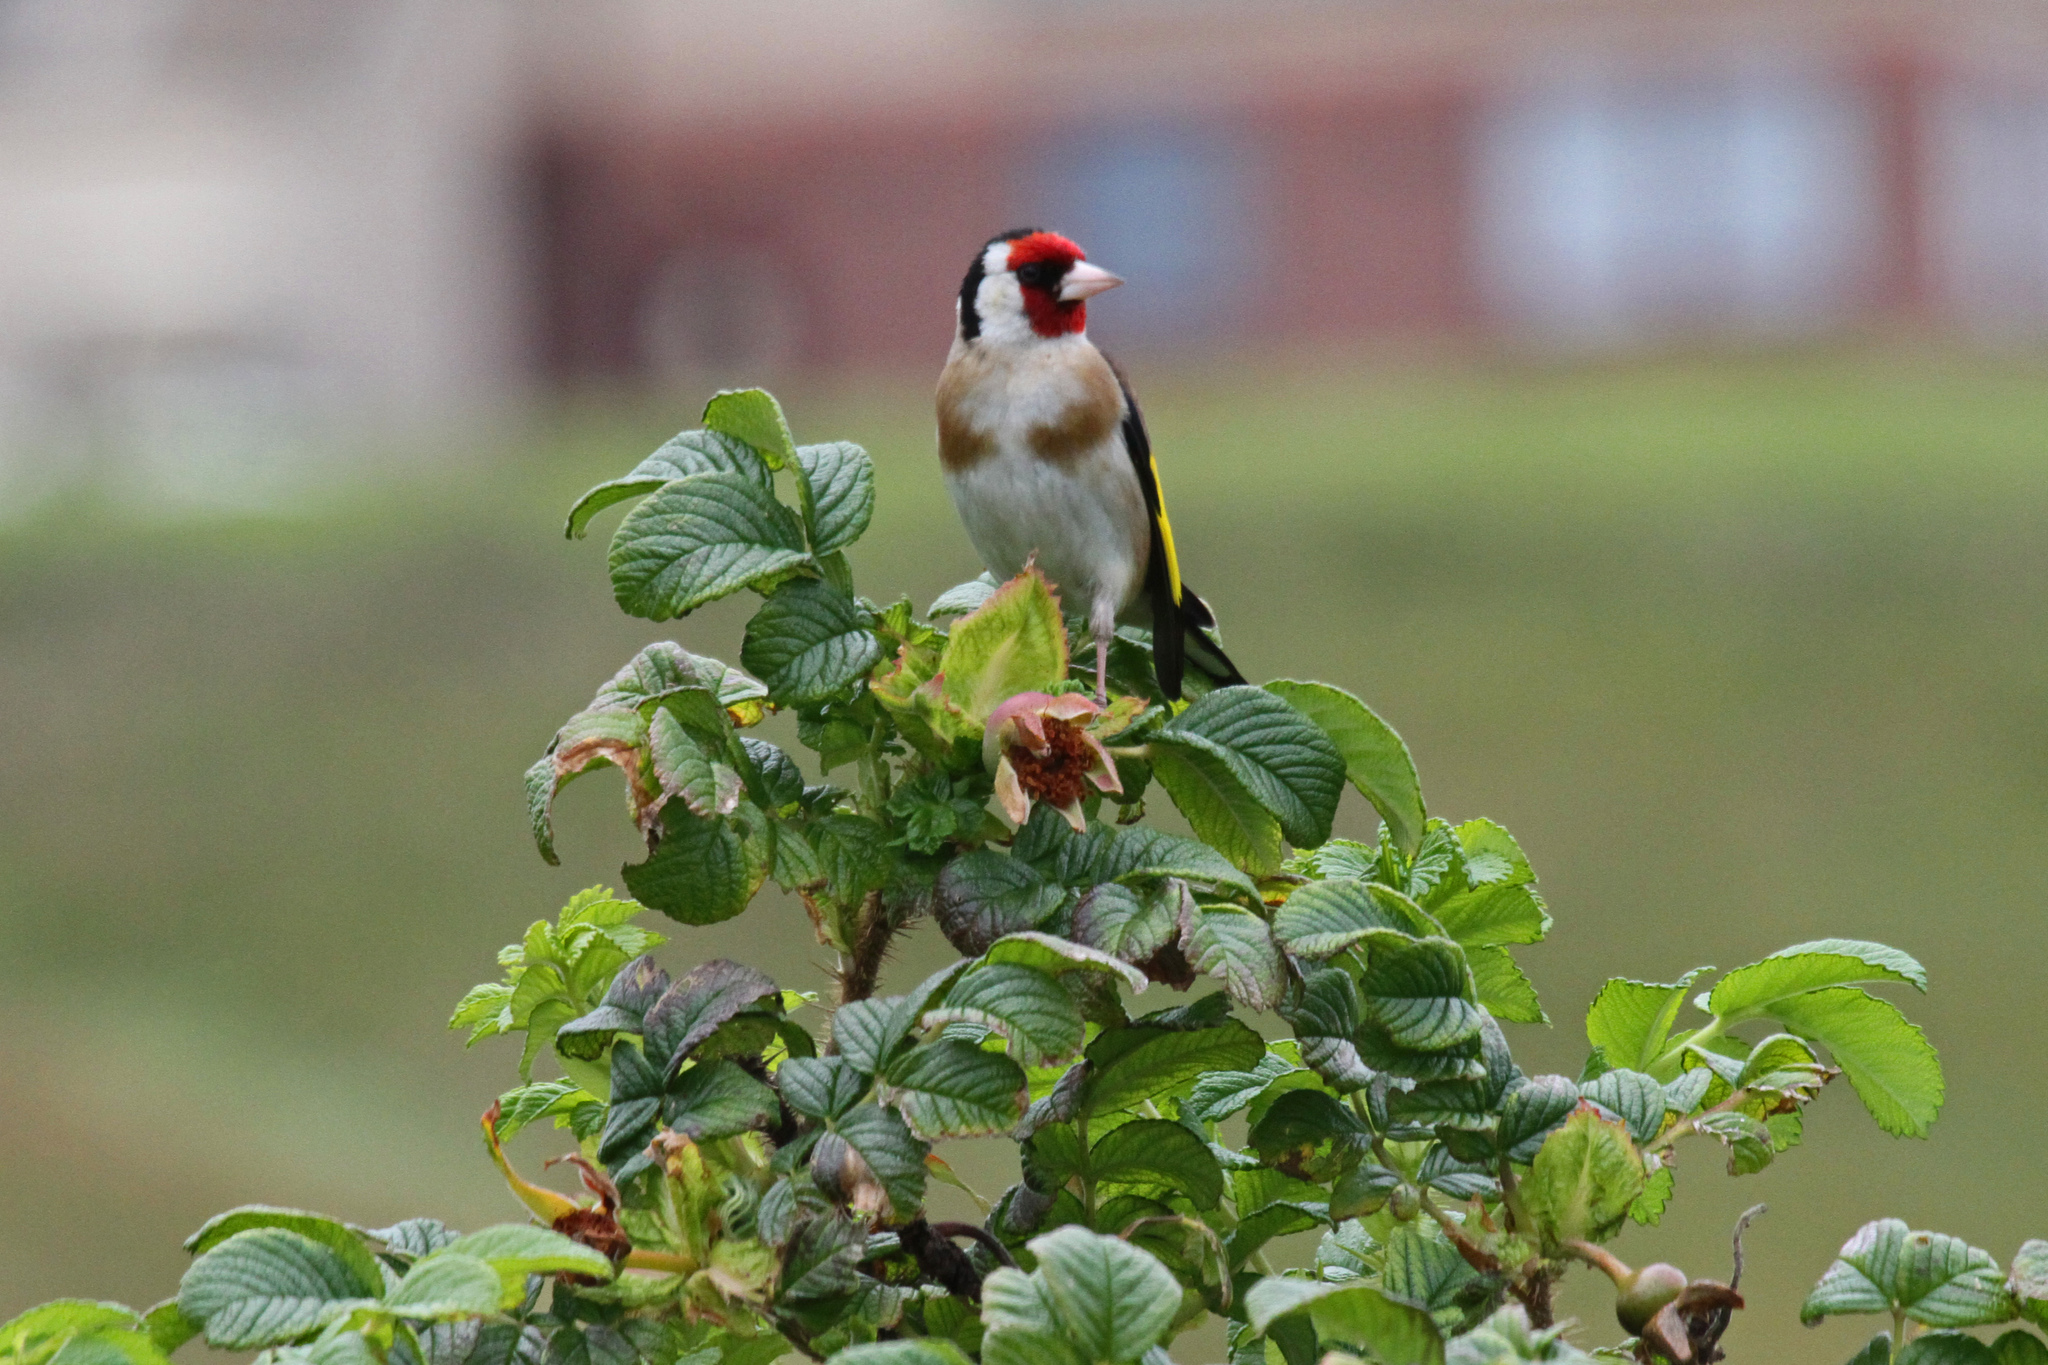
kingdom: Animalia
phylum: Chordata
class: Aves
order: Passeriformes
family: Fringillidae
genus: Carduelis
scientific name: Carduelis carduelis
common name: European goldfinch
